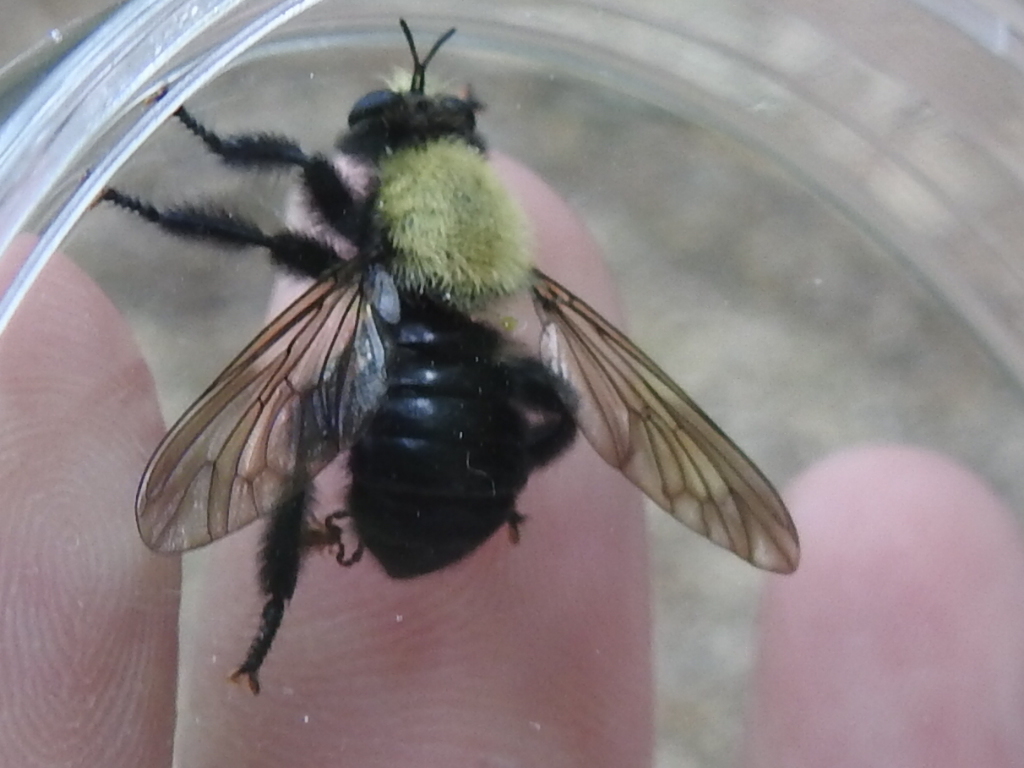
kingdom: Animalia
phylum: Arthropoda
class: Insecta
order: Diptera
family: Asilidae
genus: Laphria
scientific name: Laphria flavicollis
